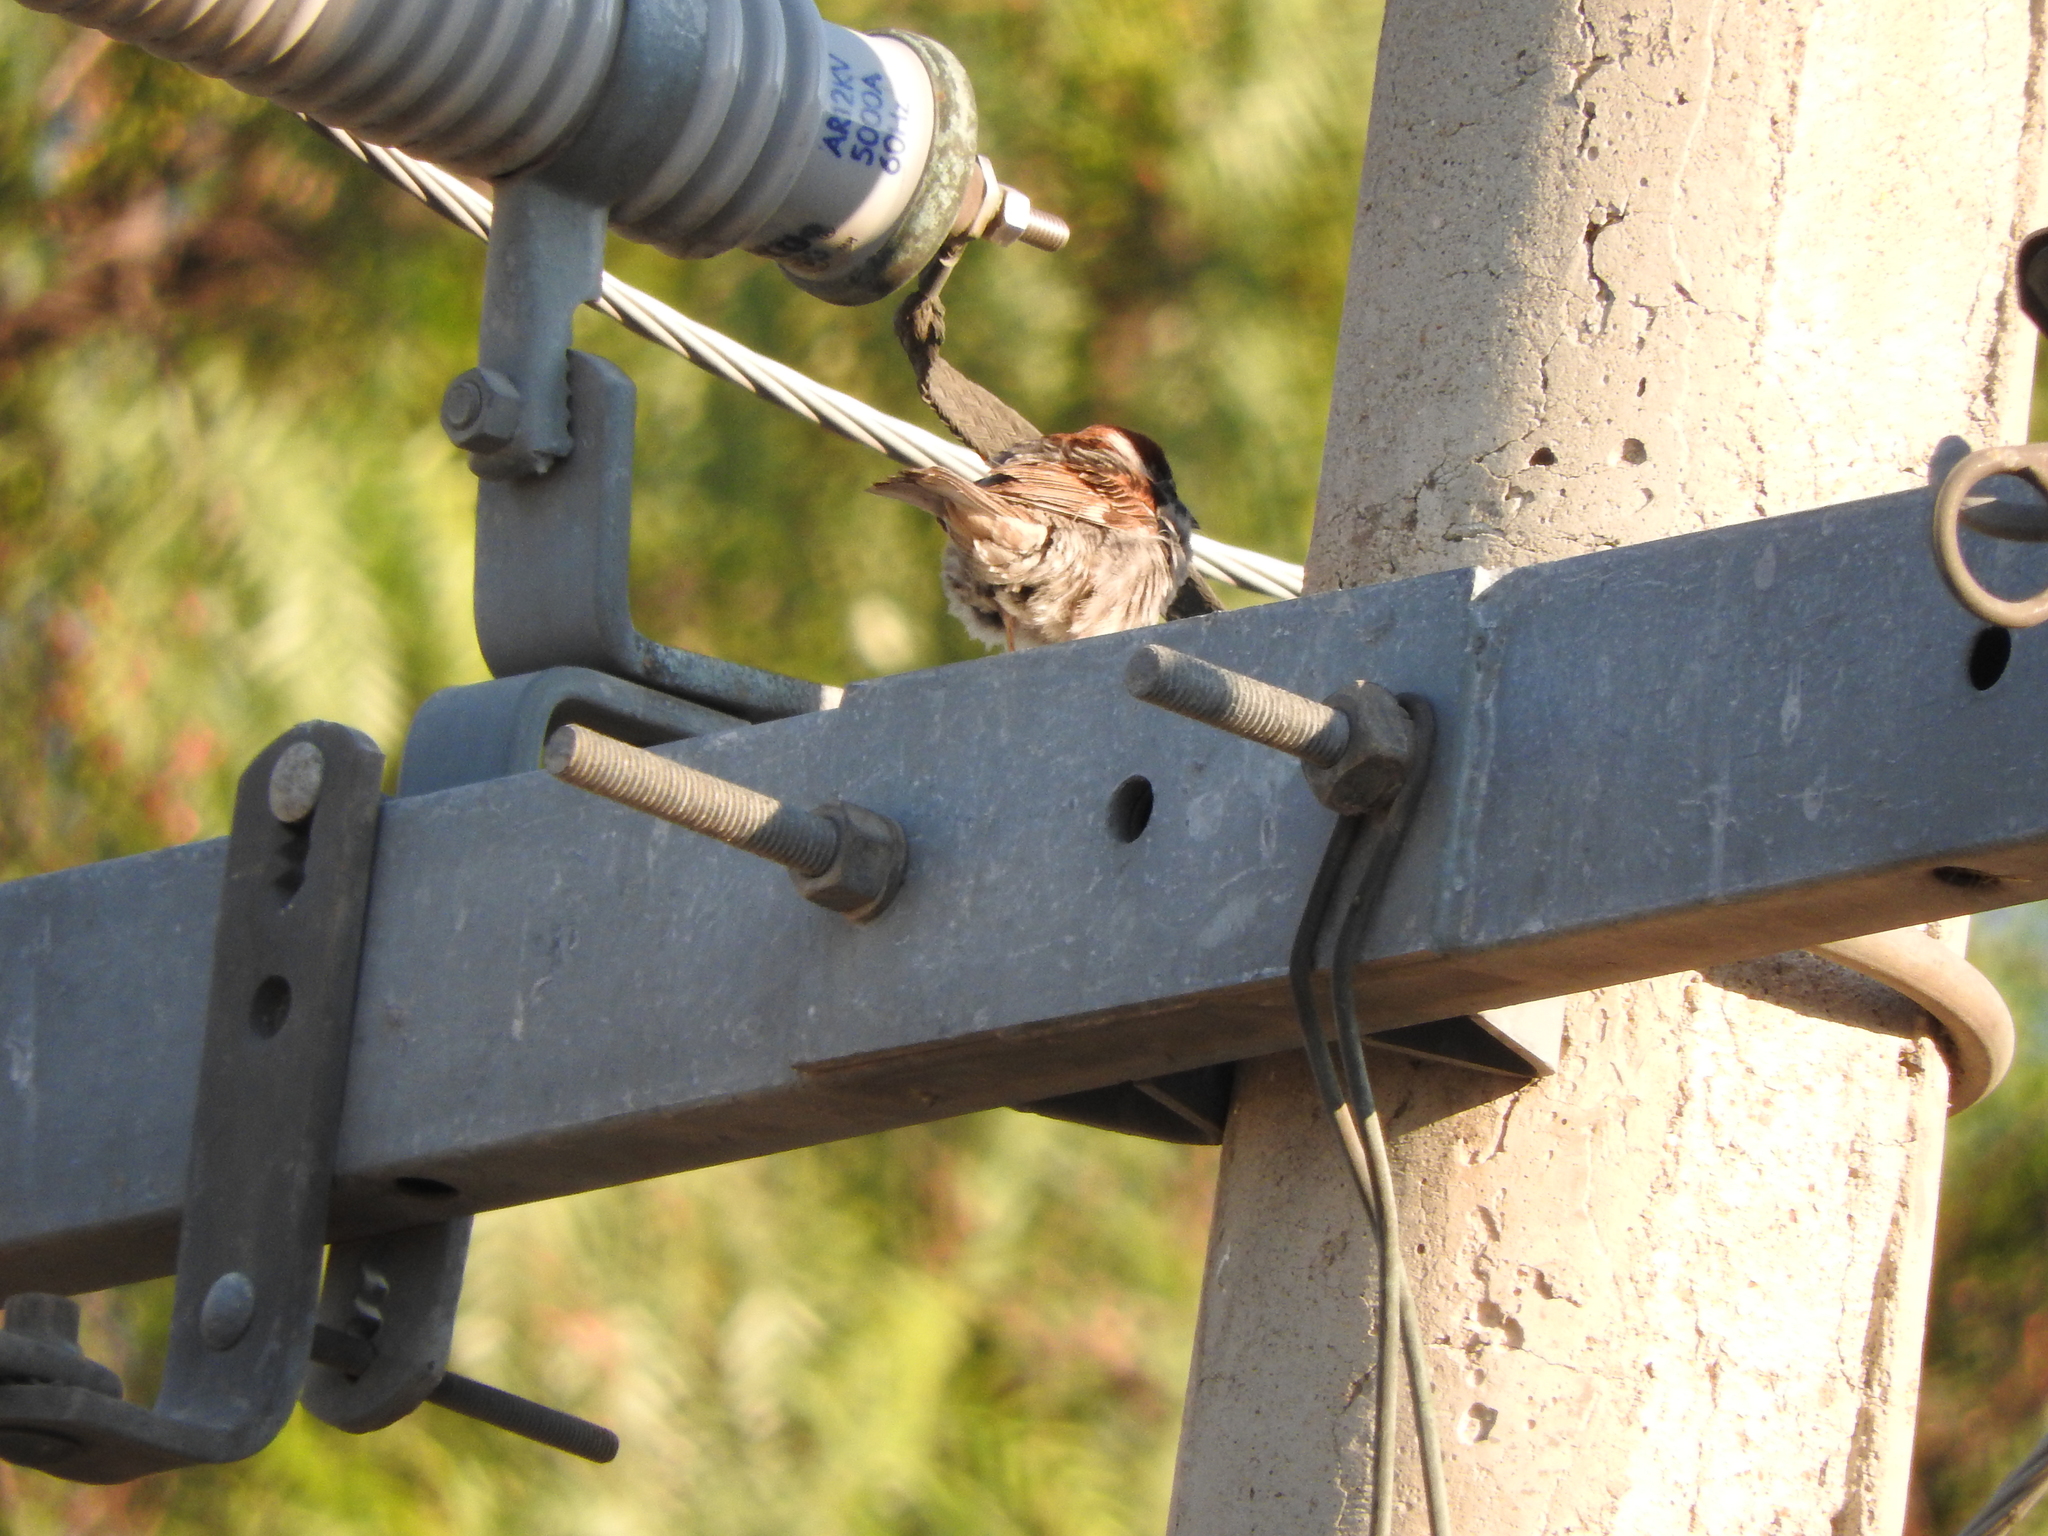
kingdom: Animalia
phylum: Chordata
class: Aves
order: Passeriformes
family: Passeridae
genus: Passer
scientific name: Passer domesticus
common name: House sparrow
